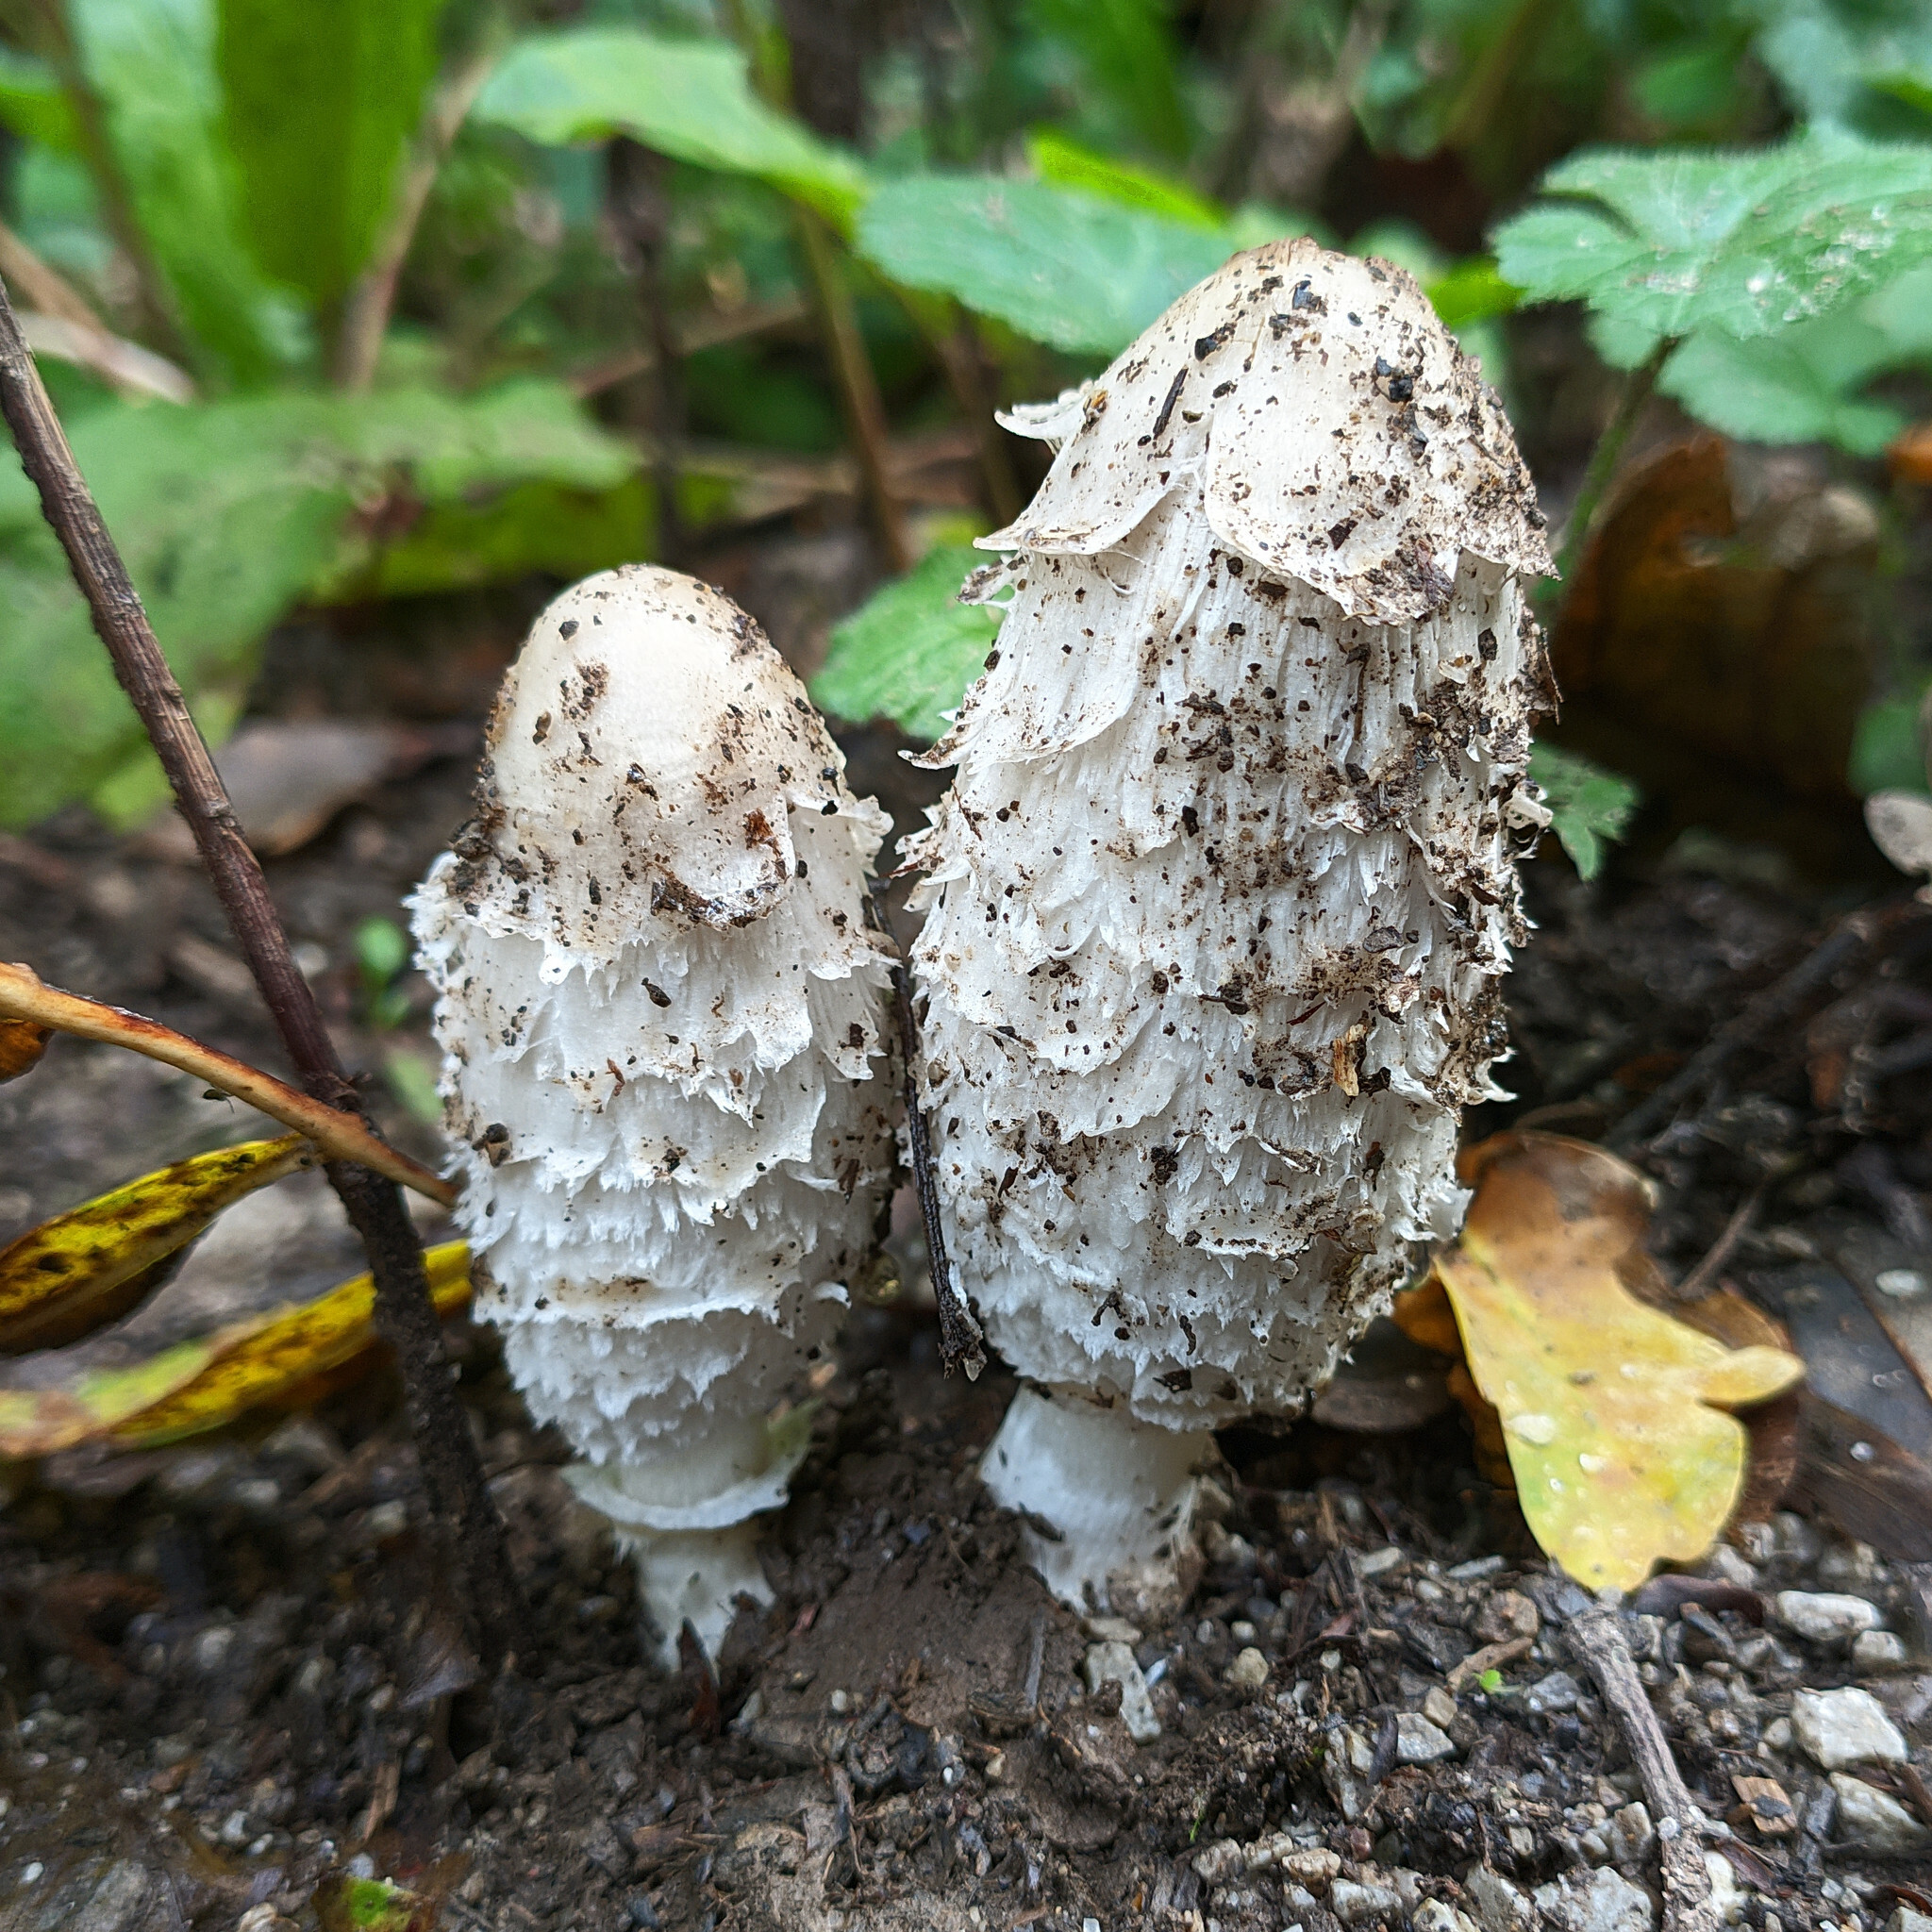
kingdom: Fungi
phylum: Basidiomycota
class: Agaricomycetes
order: Agaricales
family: Agaricaceae
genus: Coprinus
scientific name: Coprinus comatus
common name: Lawyer's wig
